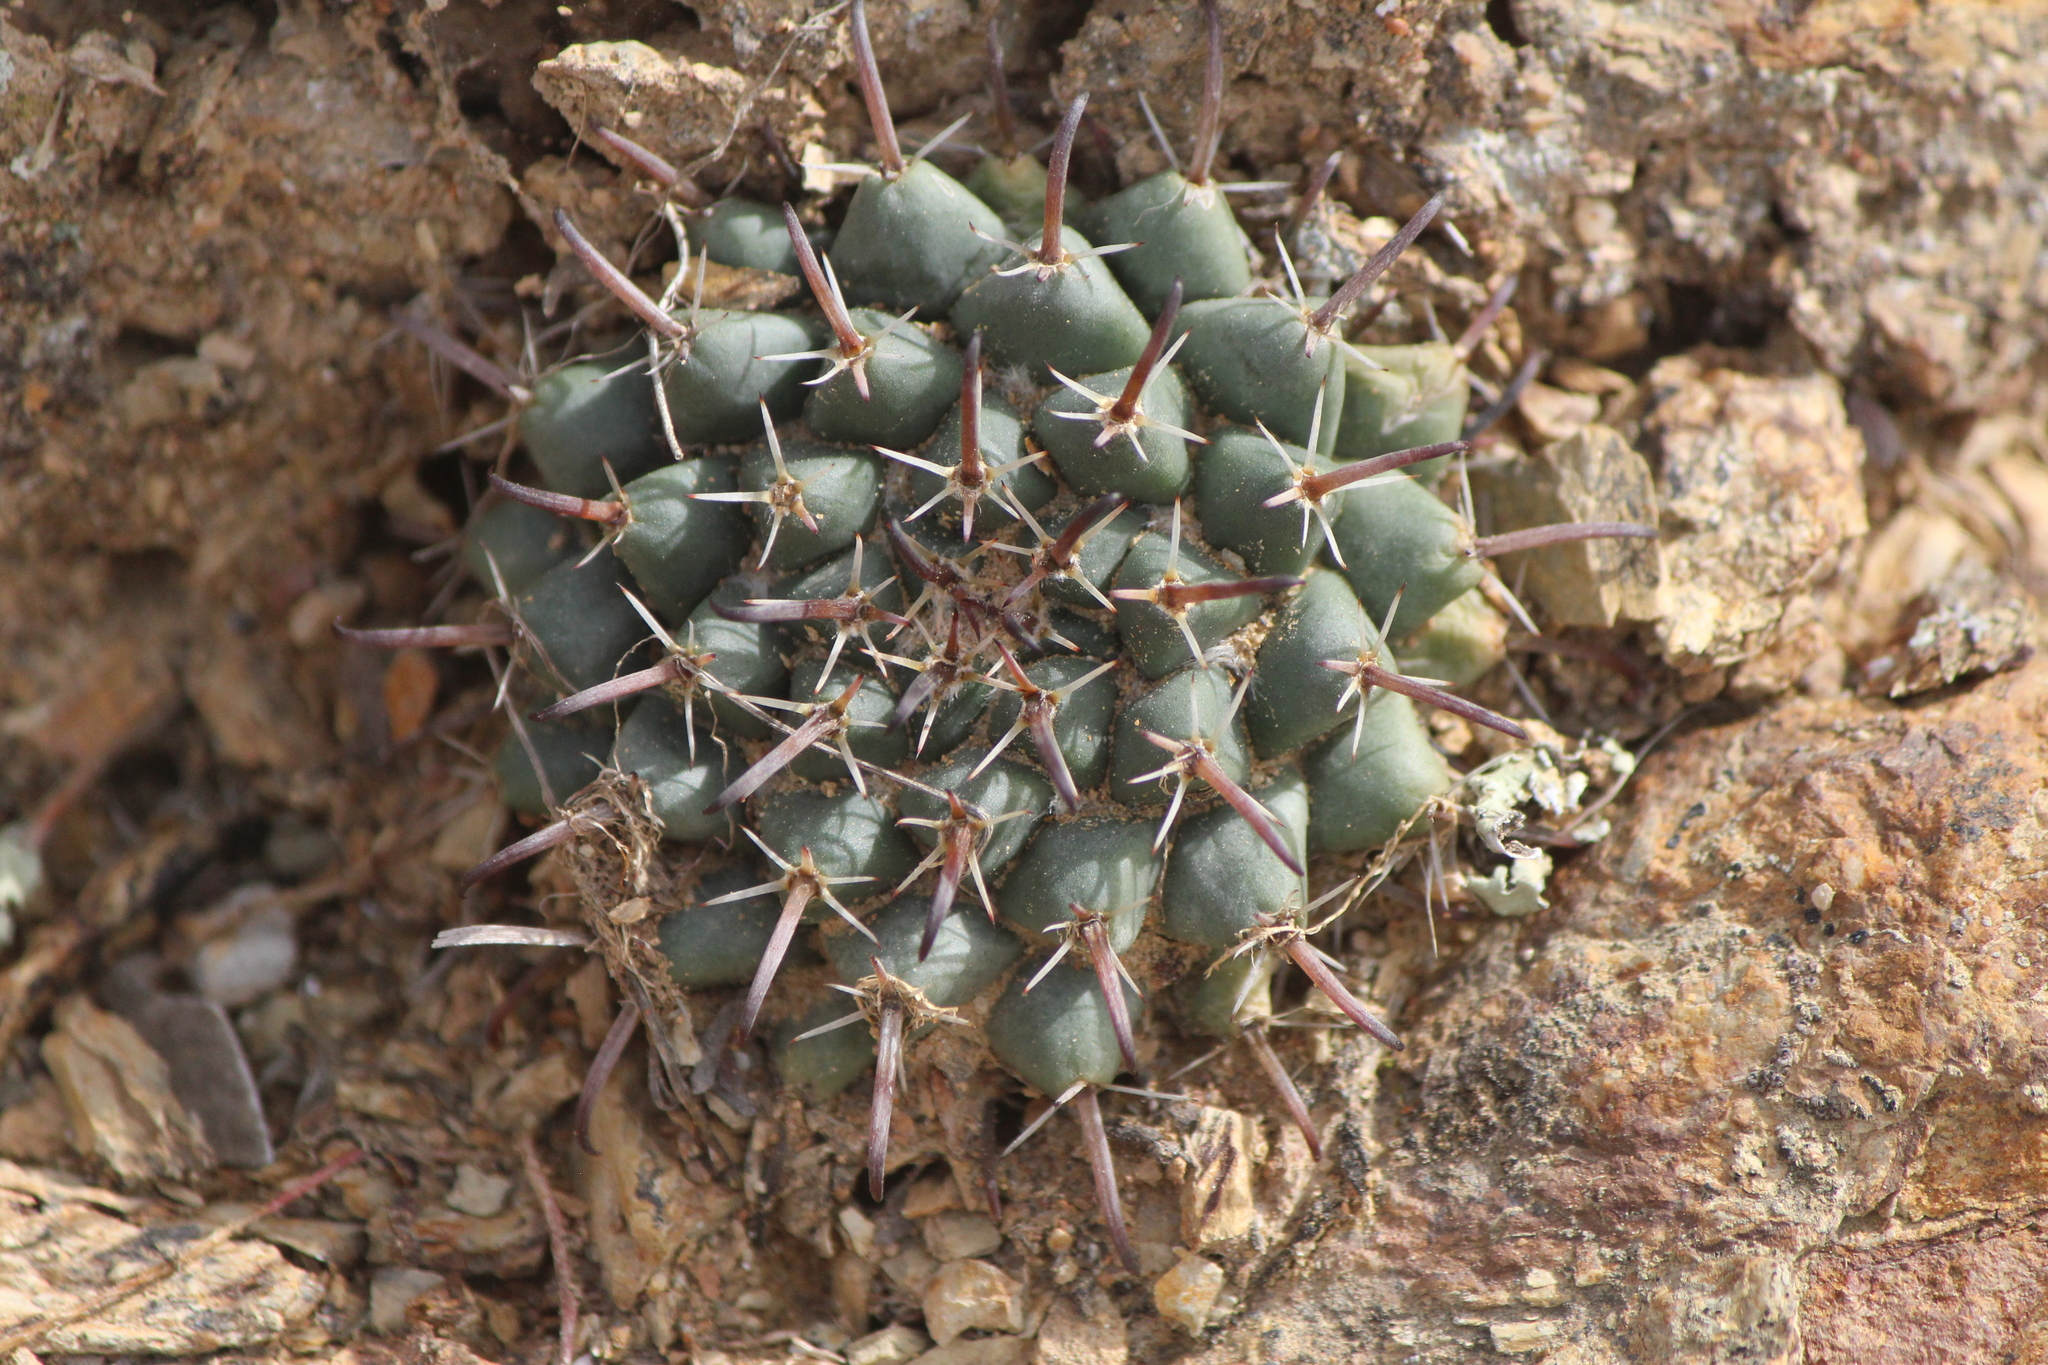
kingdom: Plantae
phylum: Tracheophyta
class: Magnoliopsida
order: Caryophyllales
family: Cactaceae
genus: Mammillaria
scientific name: Mammillaria uncinata
